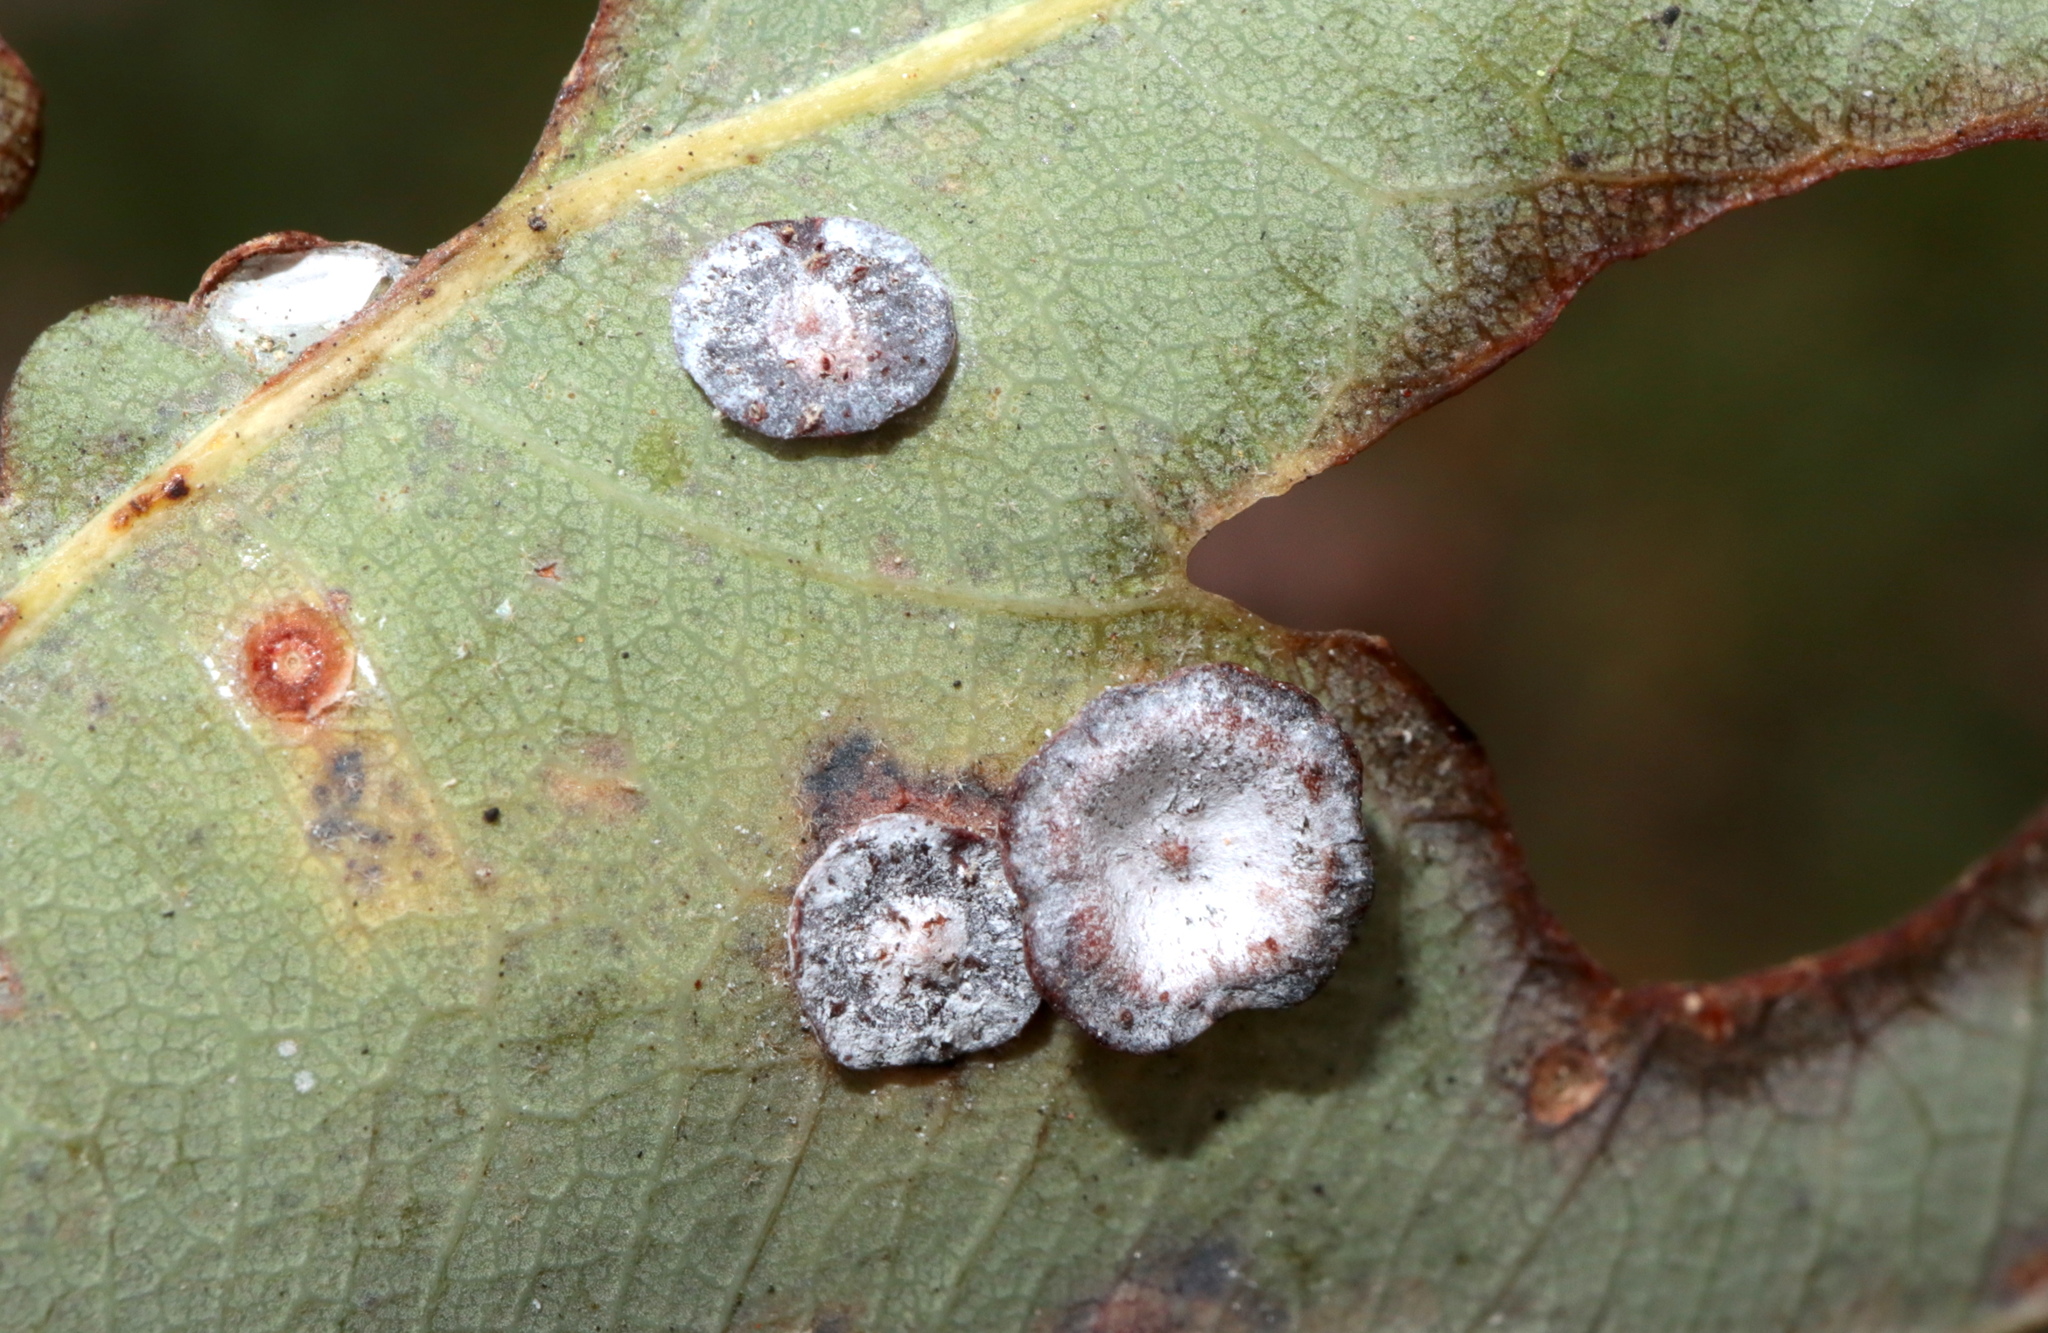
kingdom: Animalia
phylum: Arthropoda
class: Insecta
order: Hymenoptera
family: Cynipidae
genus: Phylloteras
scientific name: Phylloteras poculum
